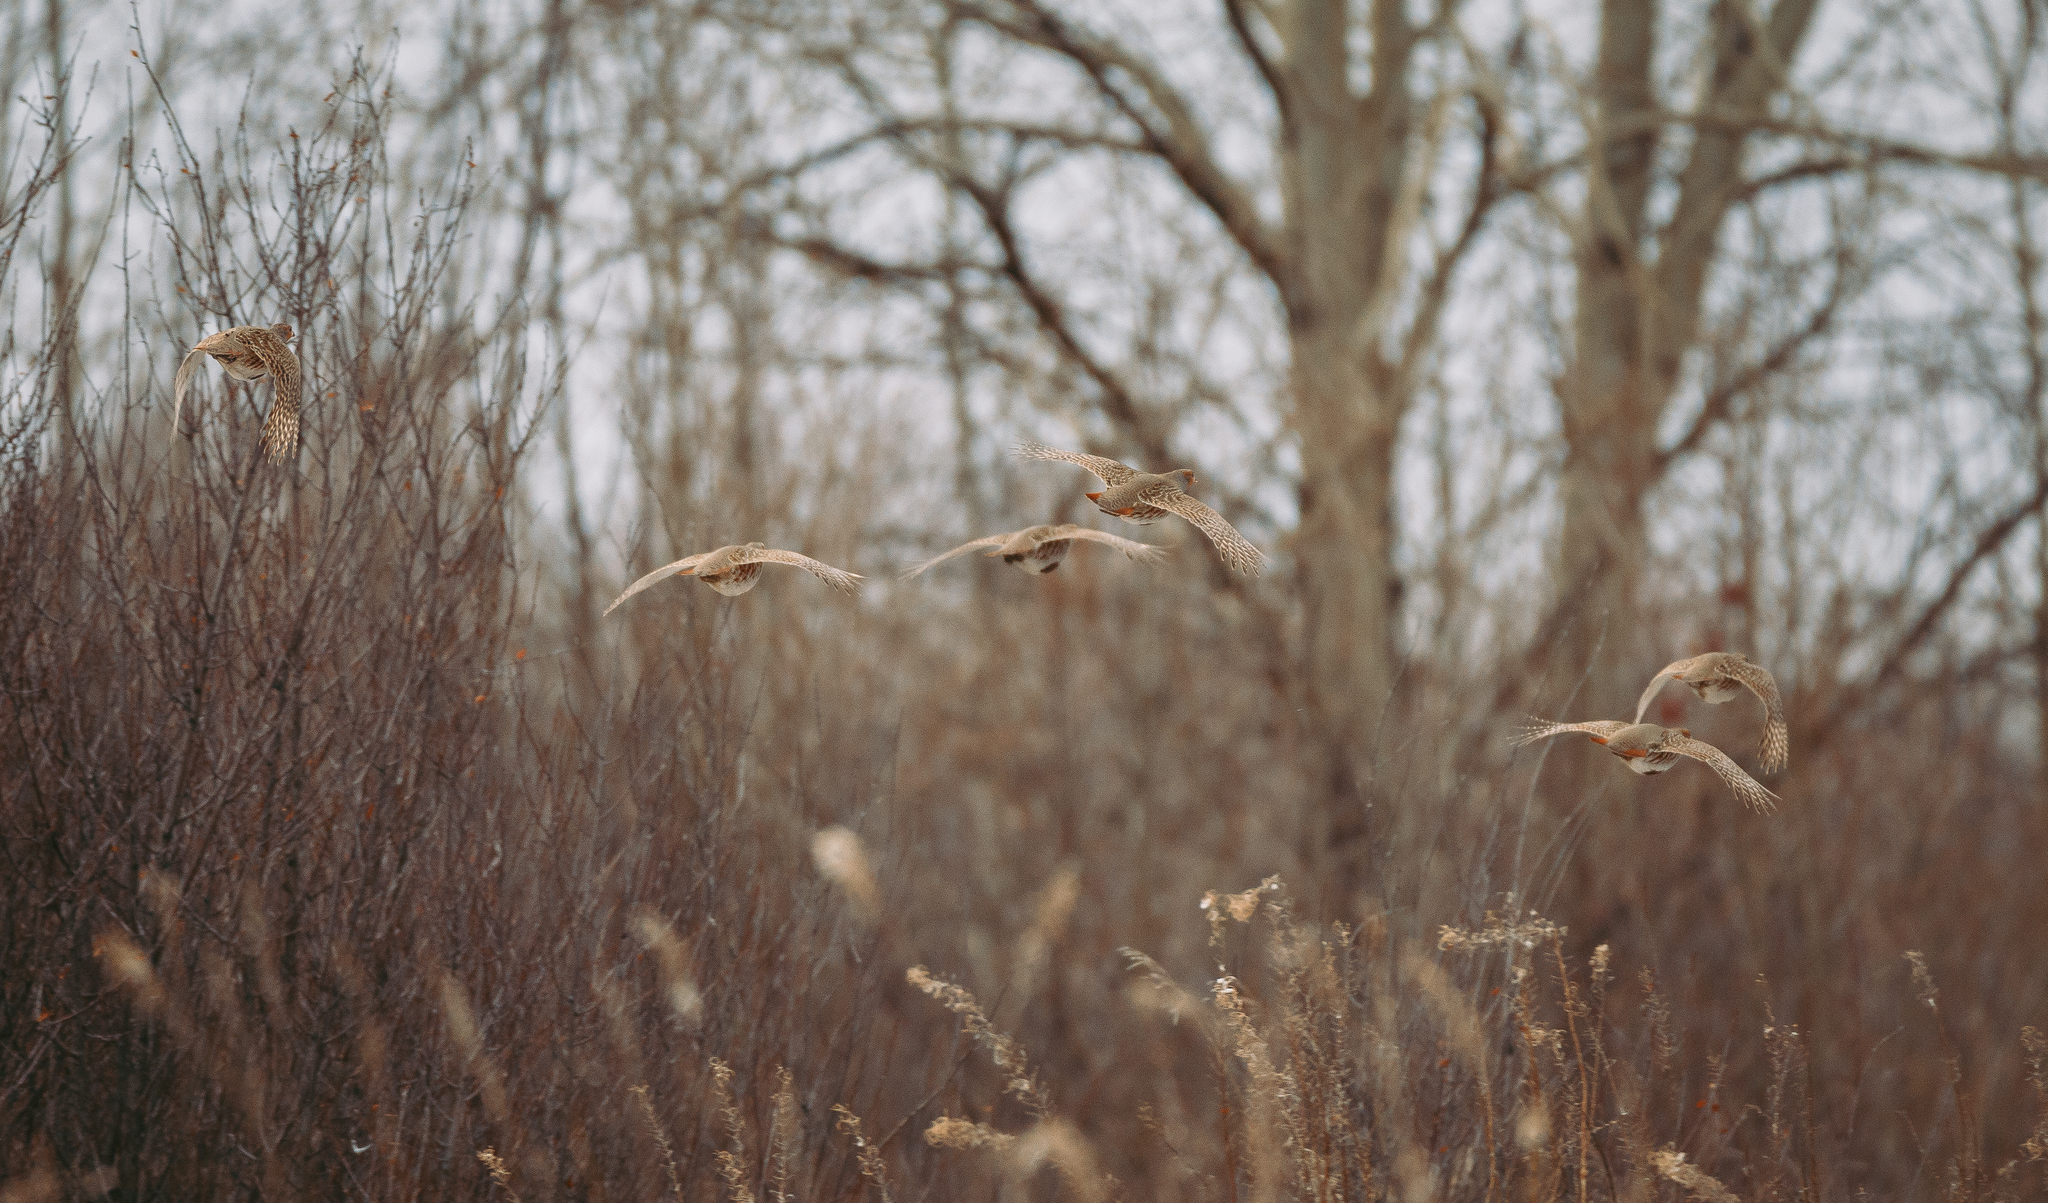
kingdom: Animalia
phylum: Chordata
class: Aves
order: Galliformes
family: Phasianidae
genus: Perdix
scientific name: Perdix perdix
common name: Grey partridge
